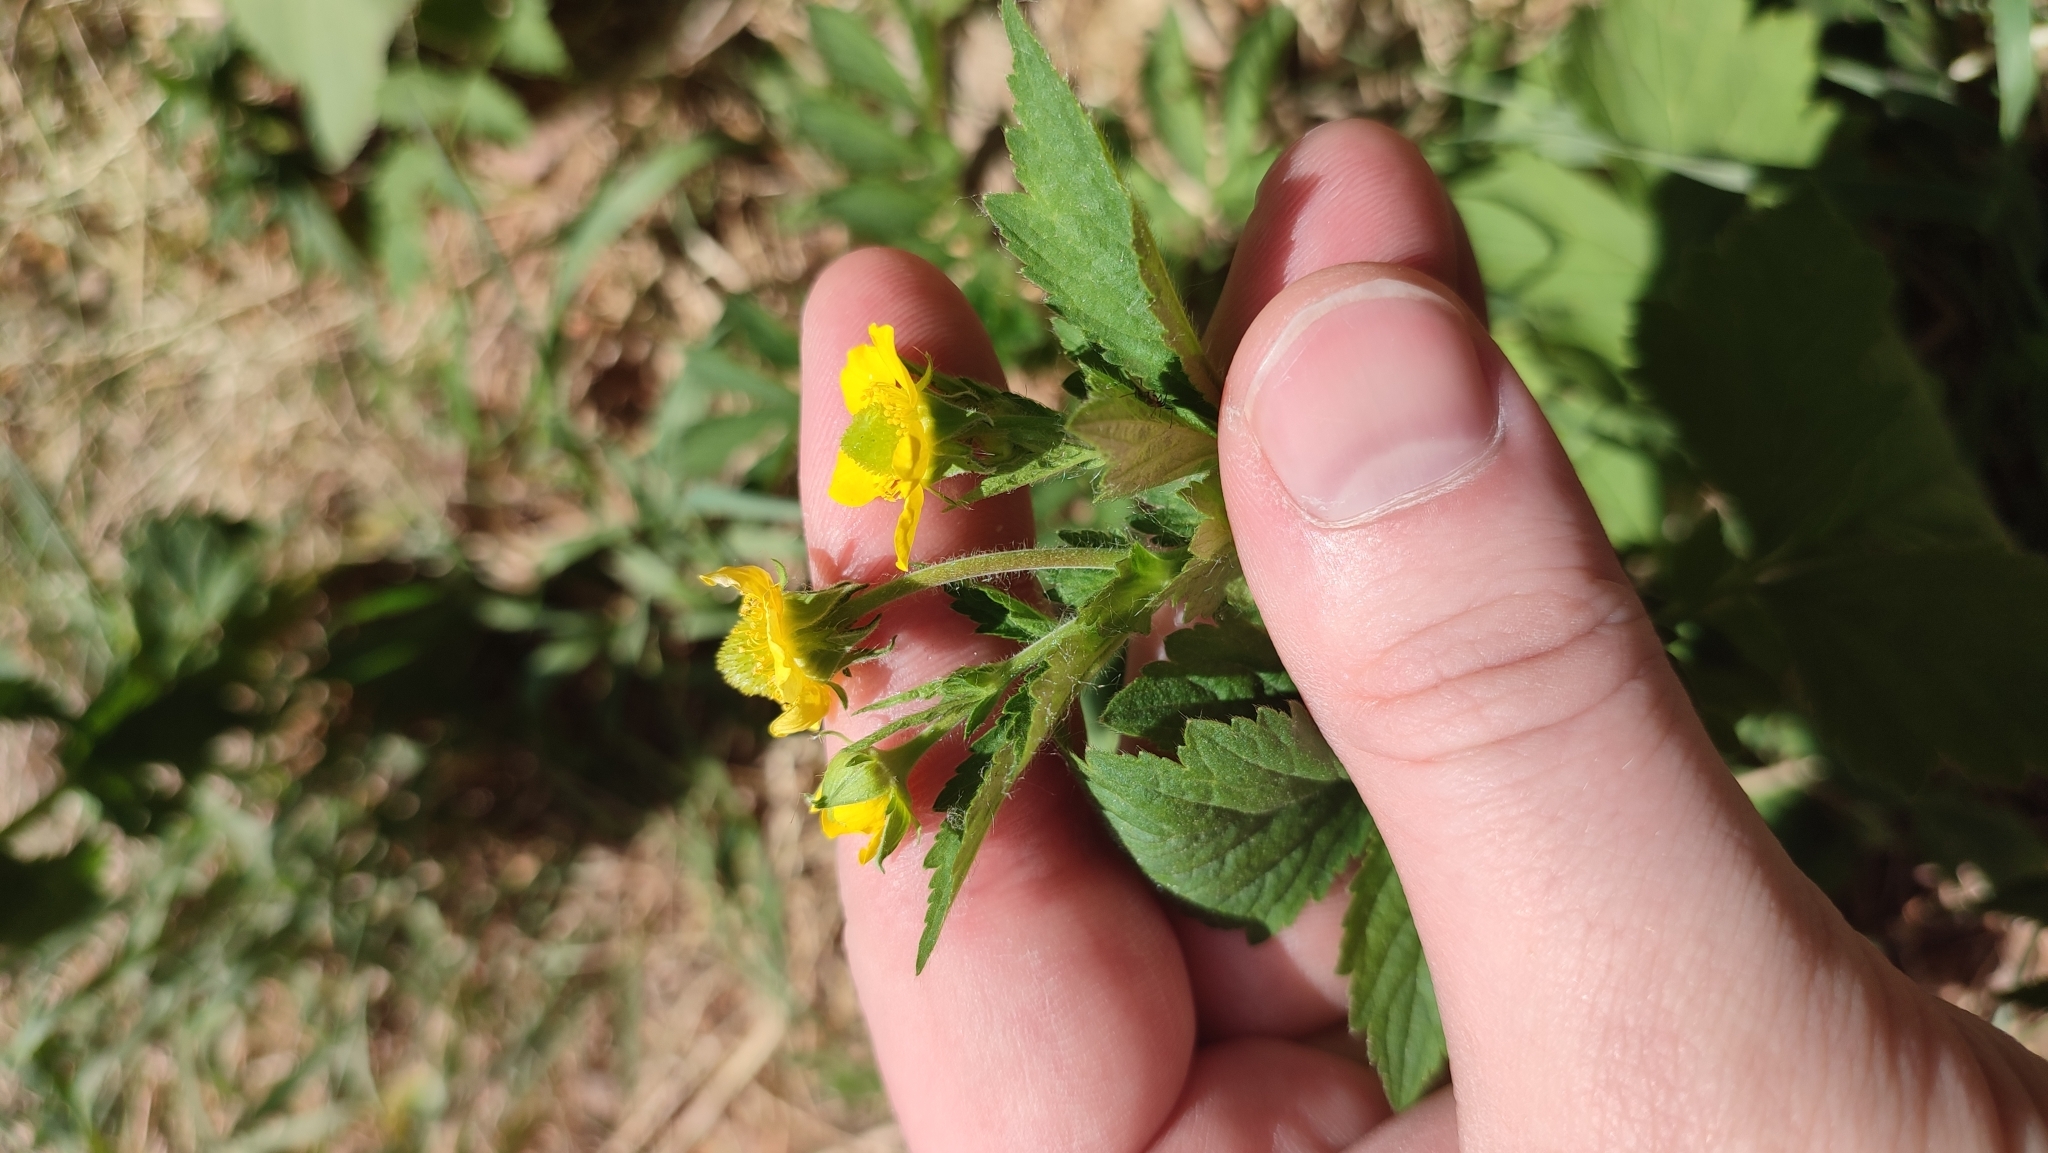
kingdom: Plantae
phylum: Tracheophyta
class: Magnoliopsida
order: Rosales
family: Rosaceae
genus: Geum
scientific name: Geum aleppicum
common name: Yellow avens
